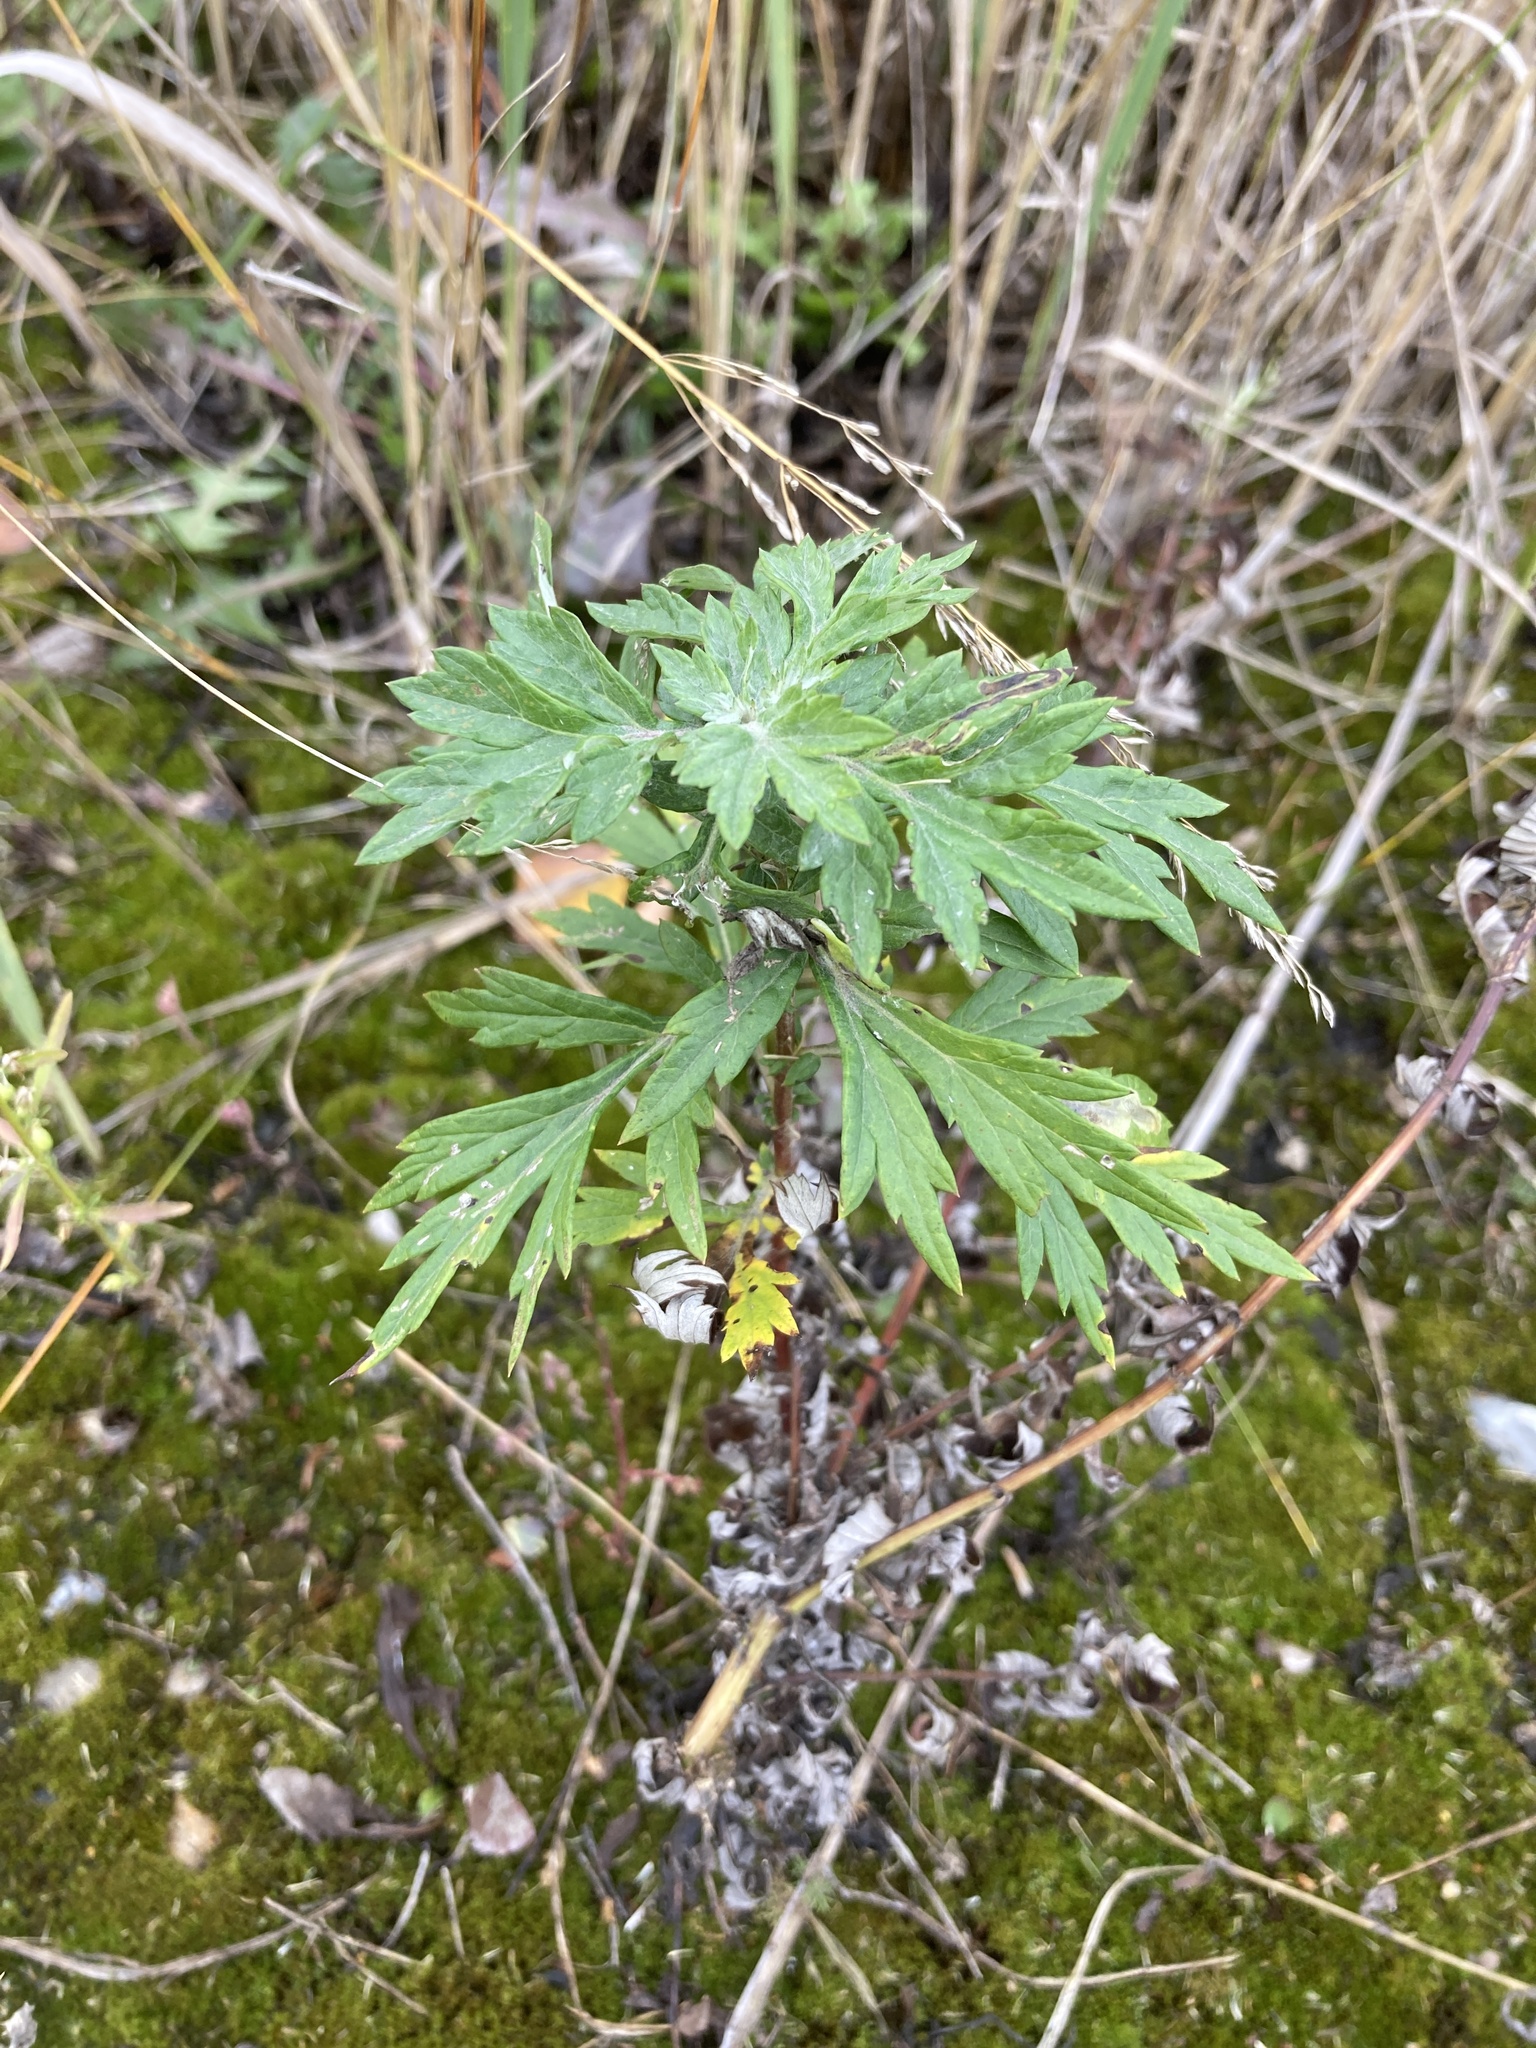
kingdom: Plantae
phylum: Tracheophyta
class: Magnoliopsida
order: Asterales
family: Asteraceae
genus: Artemisia
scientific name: Artemisia vulgaris
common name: Mugwort
